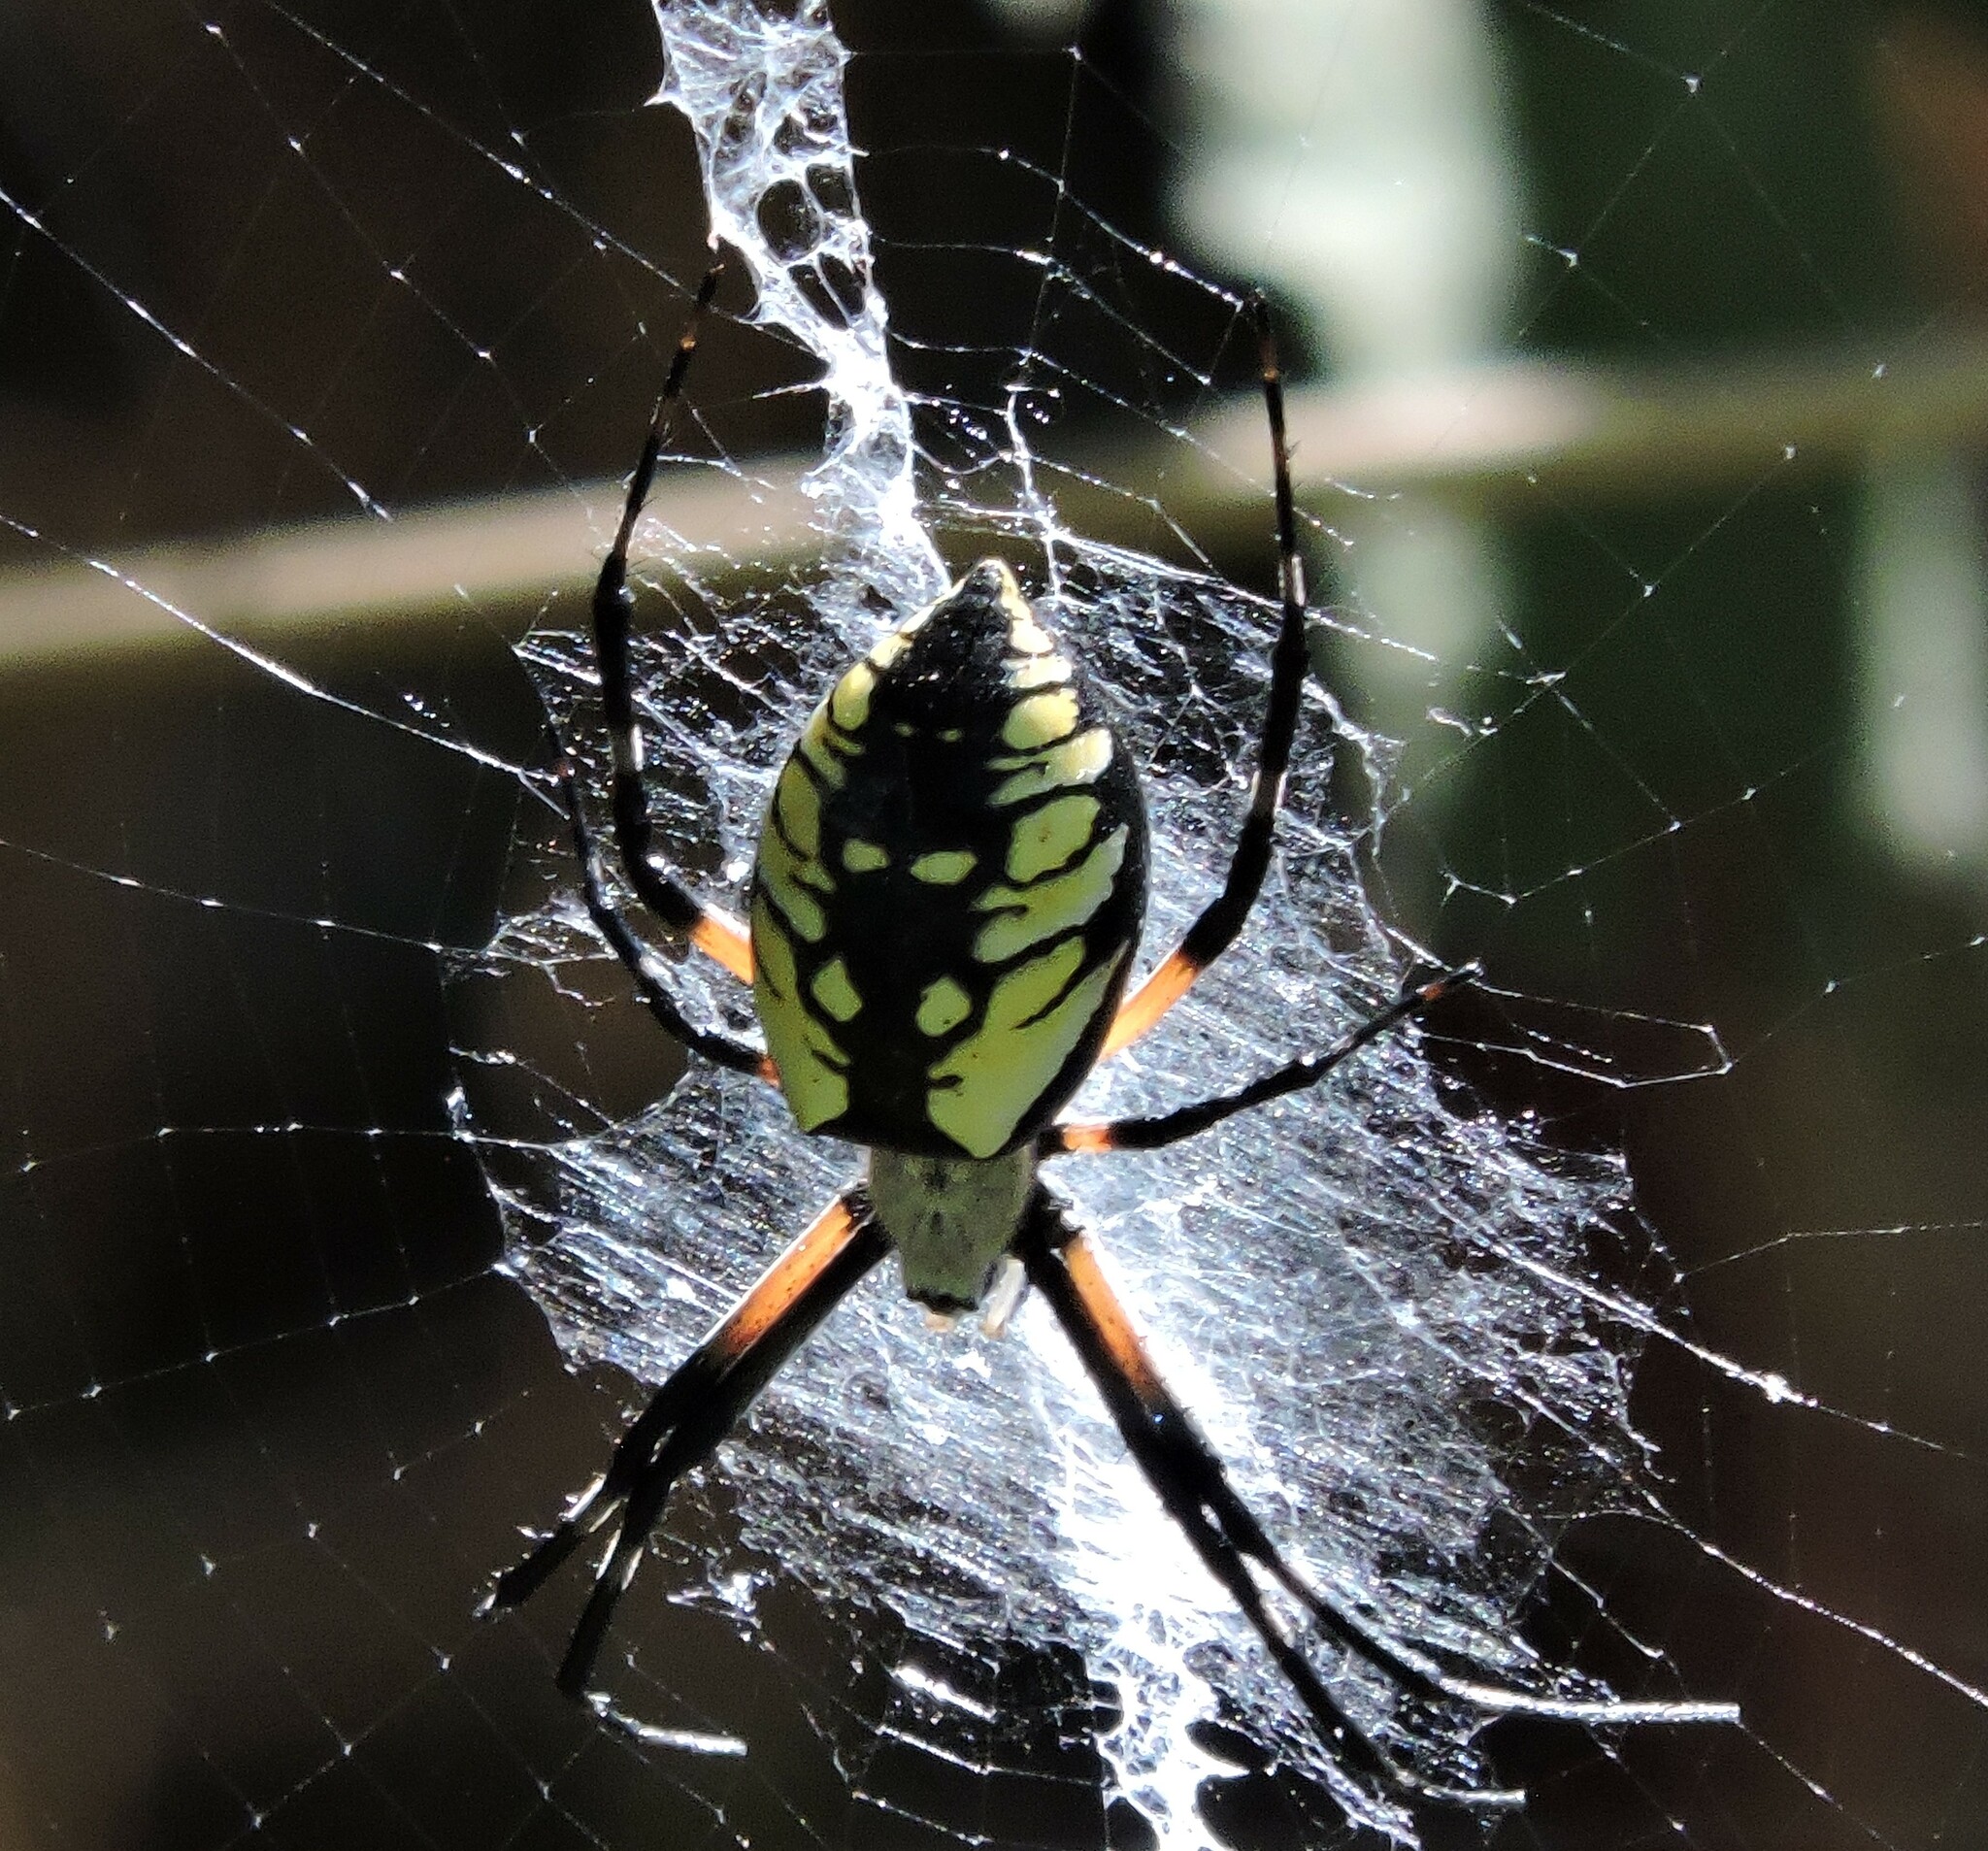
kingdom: Animalia
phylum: Arthropoda
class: Arachnida
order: Araneae
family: Araneidae
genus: Argiope
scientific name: Argiope aurantia
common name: Orb weavers
